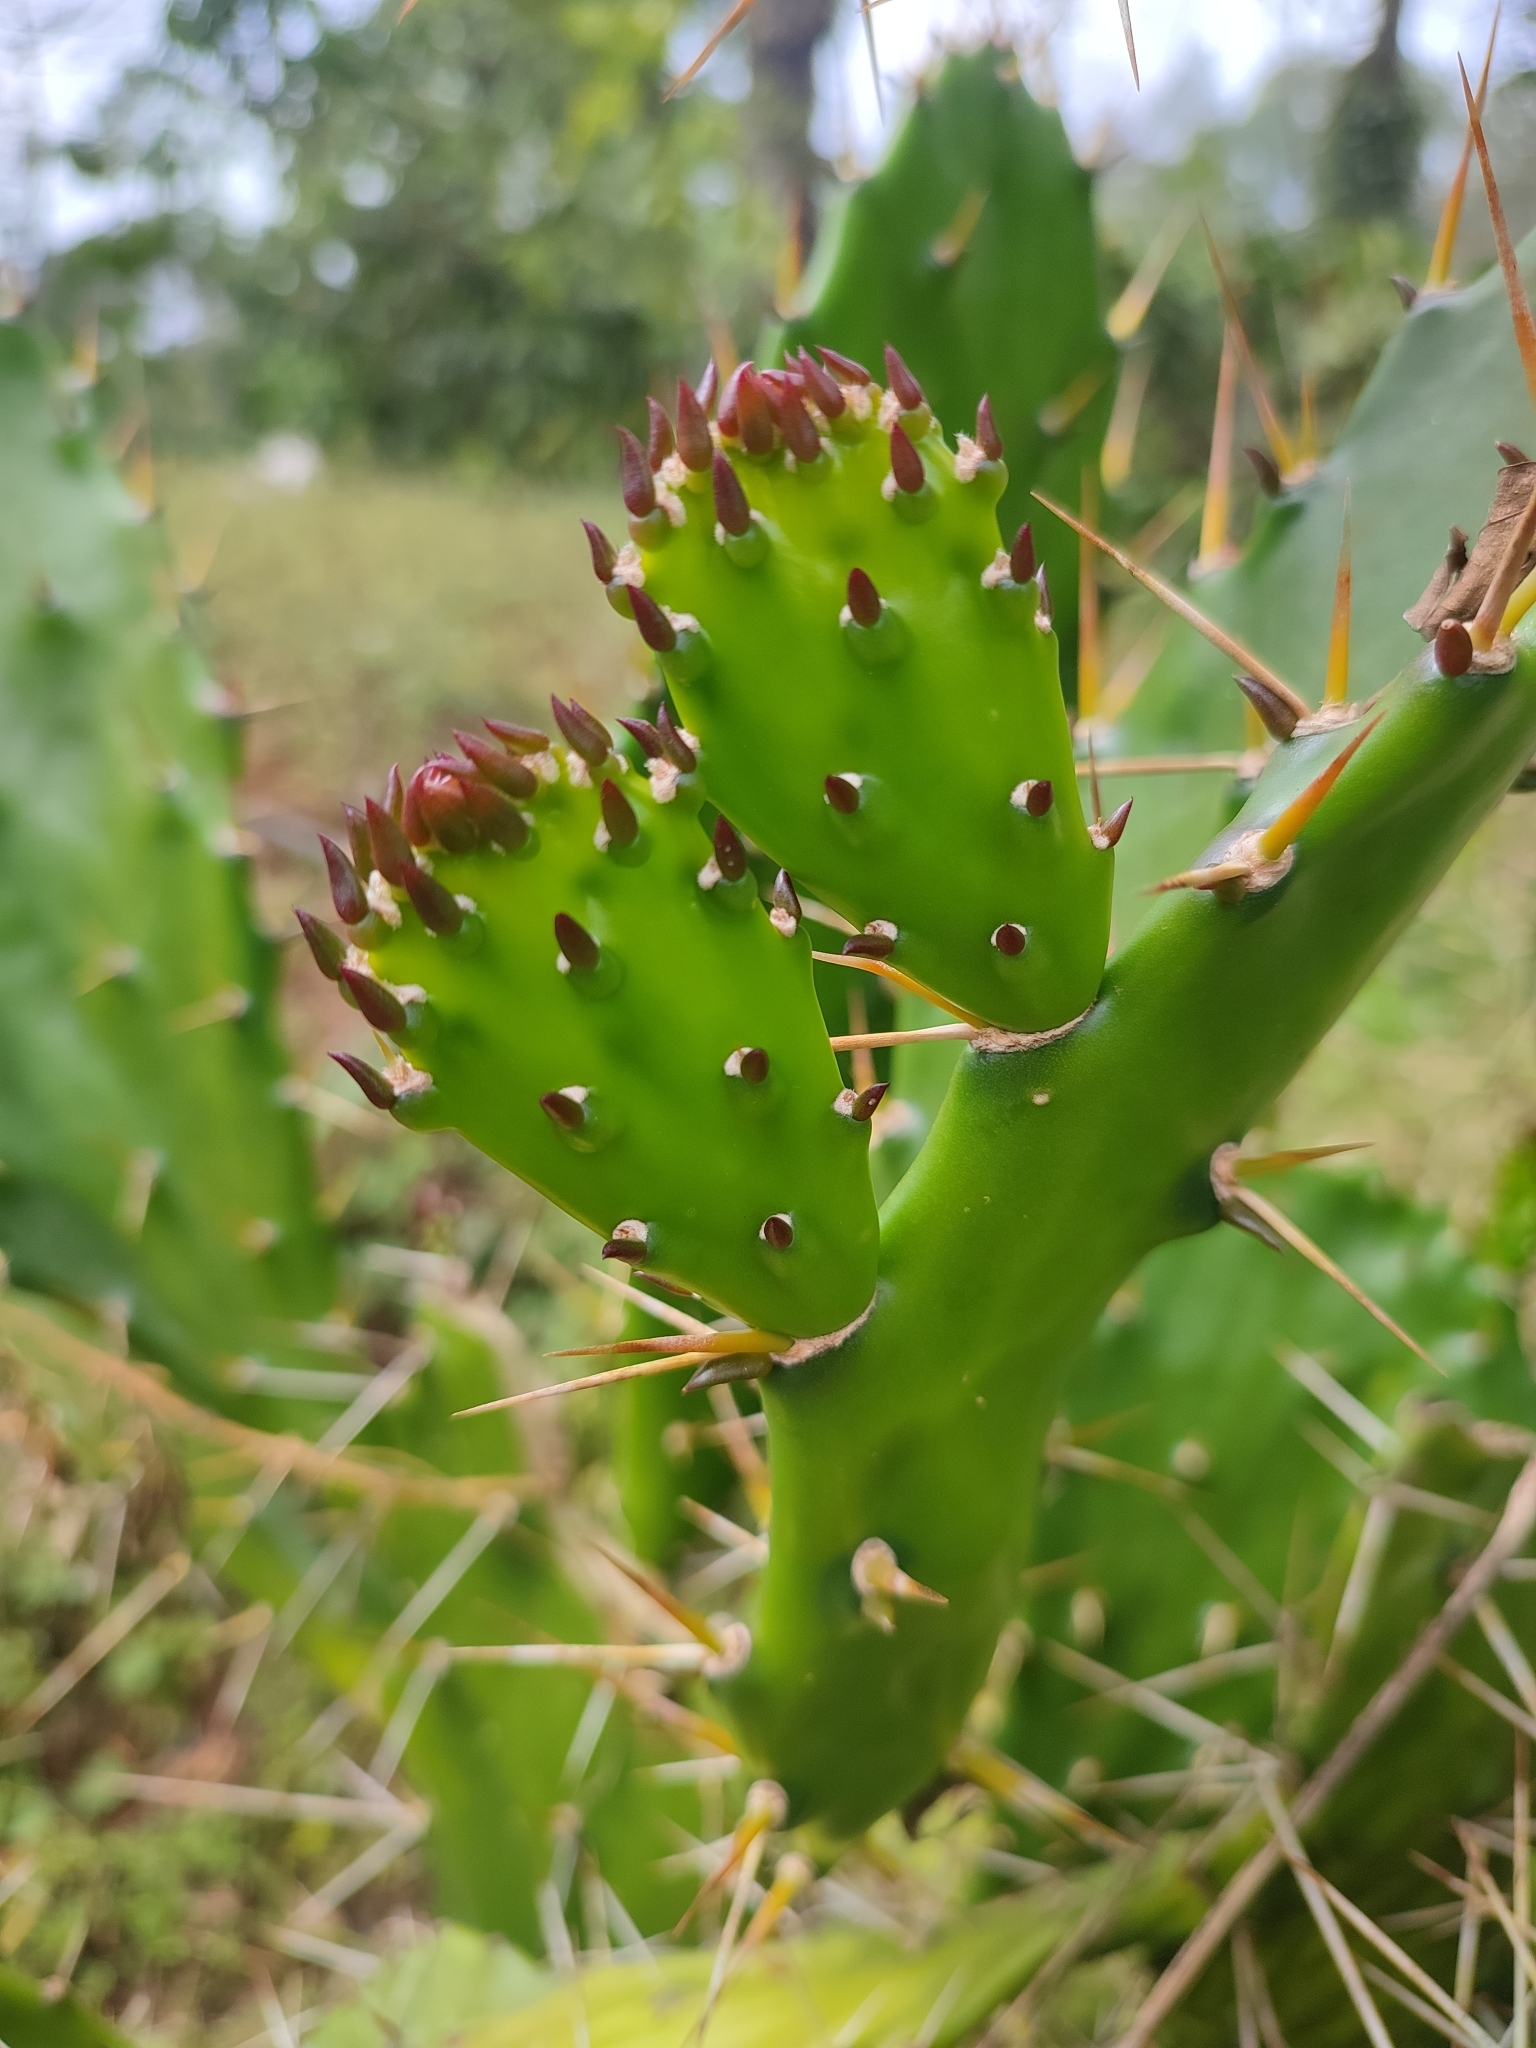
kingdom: Plantae
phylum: Tracheophyta
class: Magnoliopsida
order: Caryophyllales
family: Cactaceae
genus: Opuntia
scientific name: Opuntia monacantha
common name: Common pricklypear
